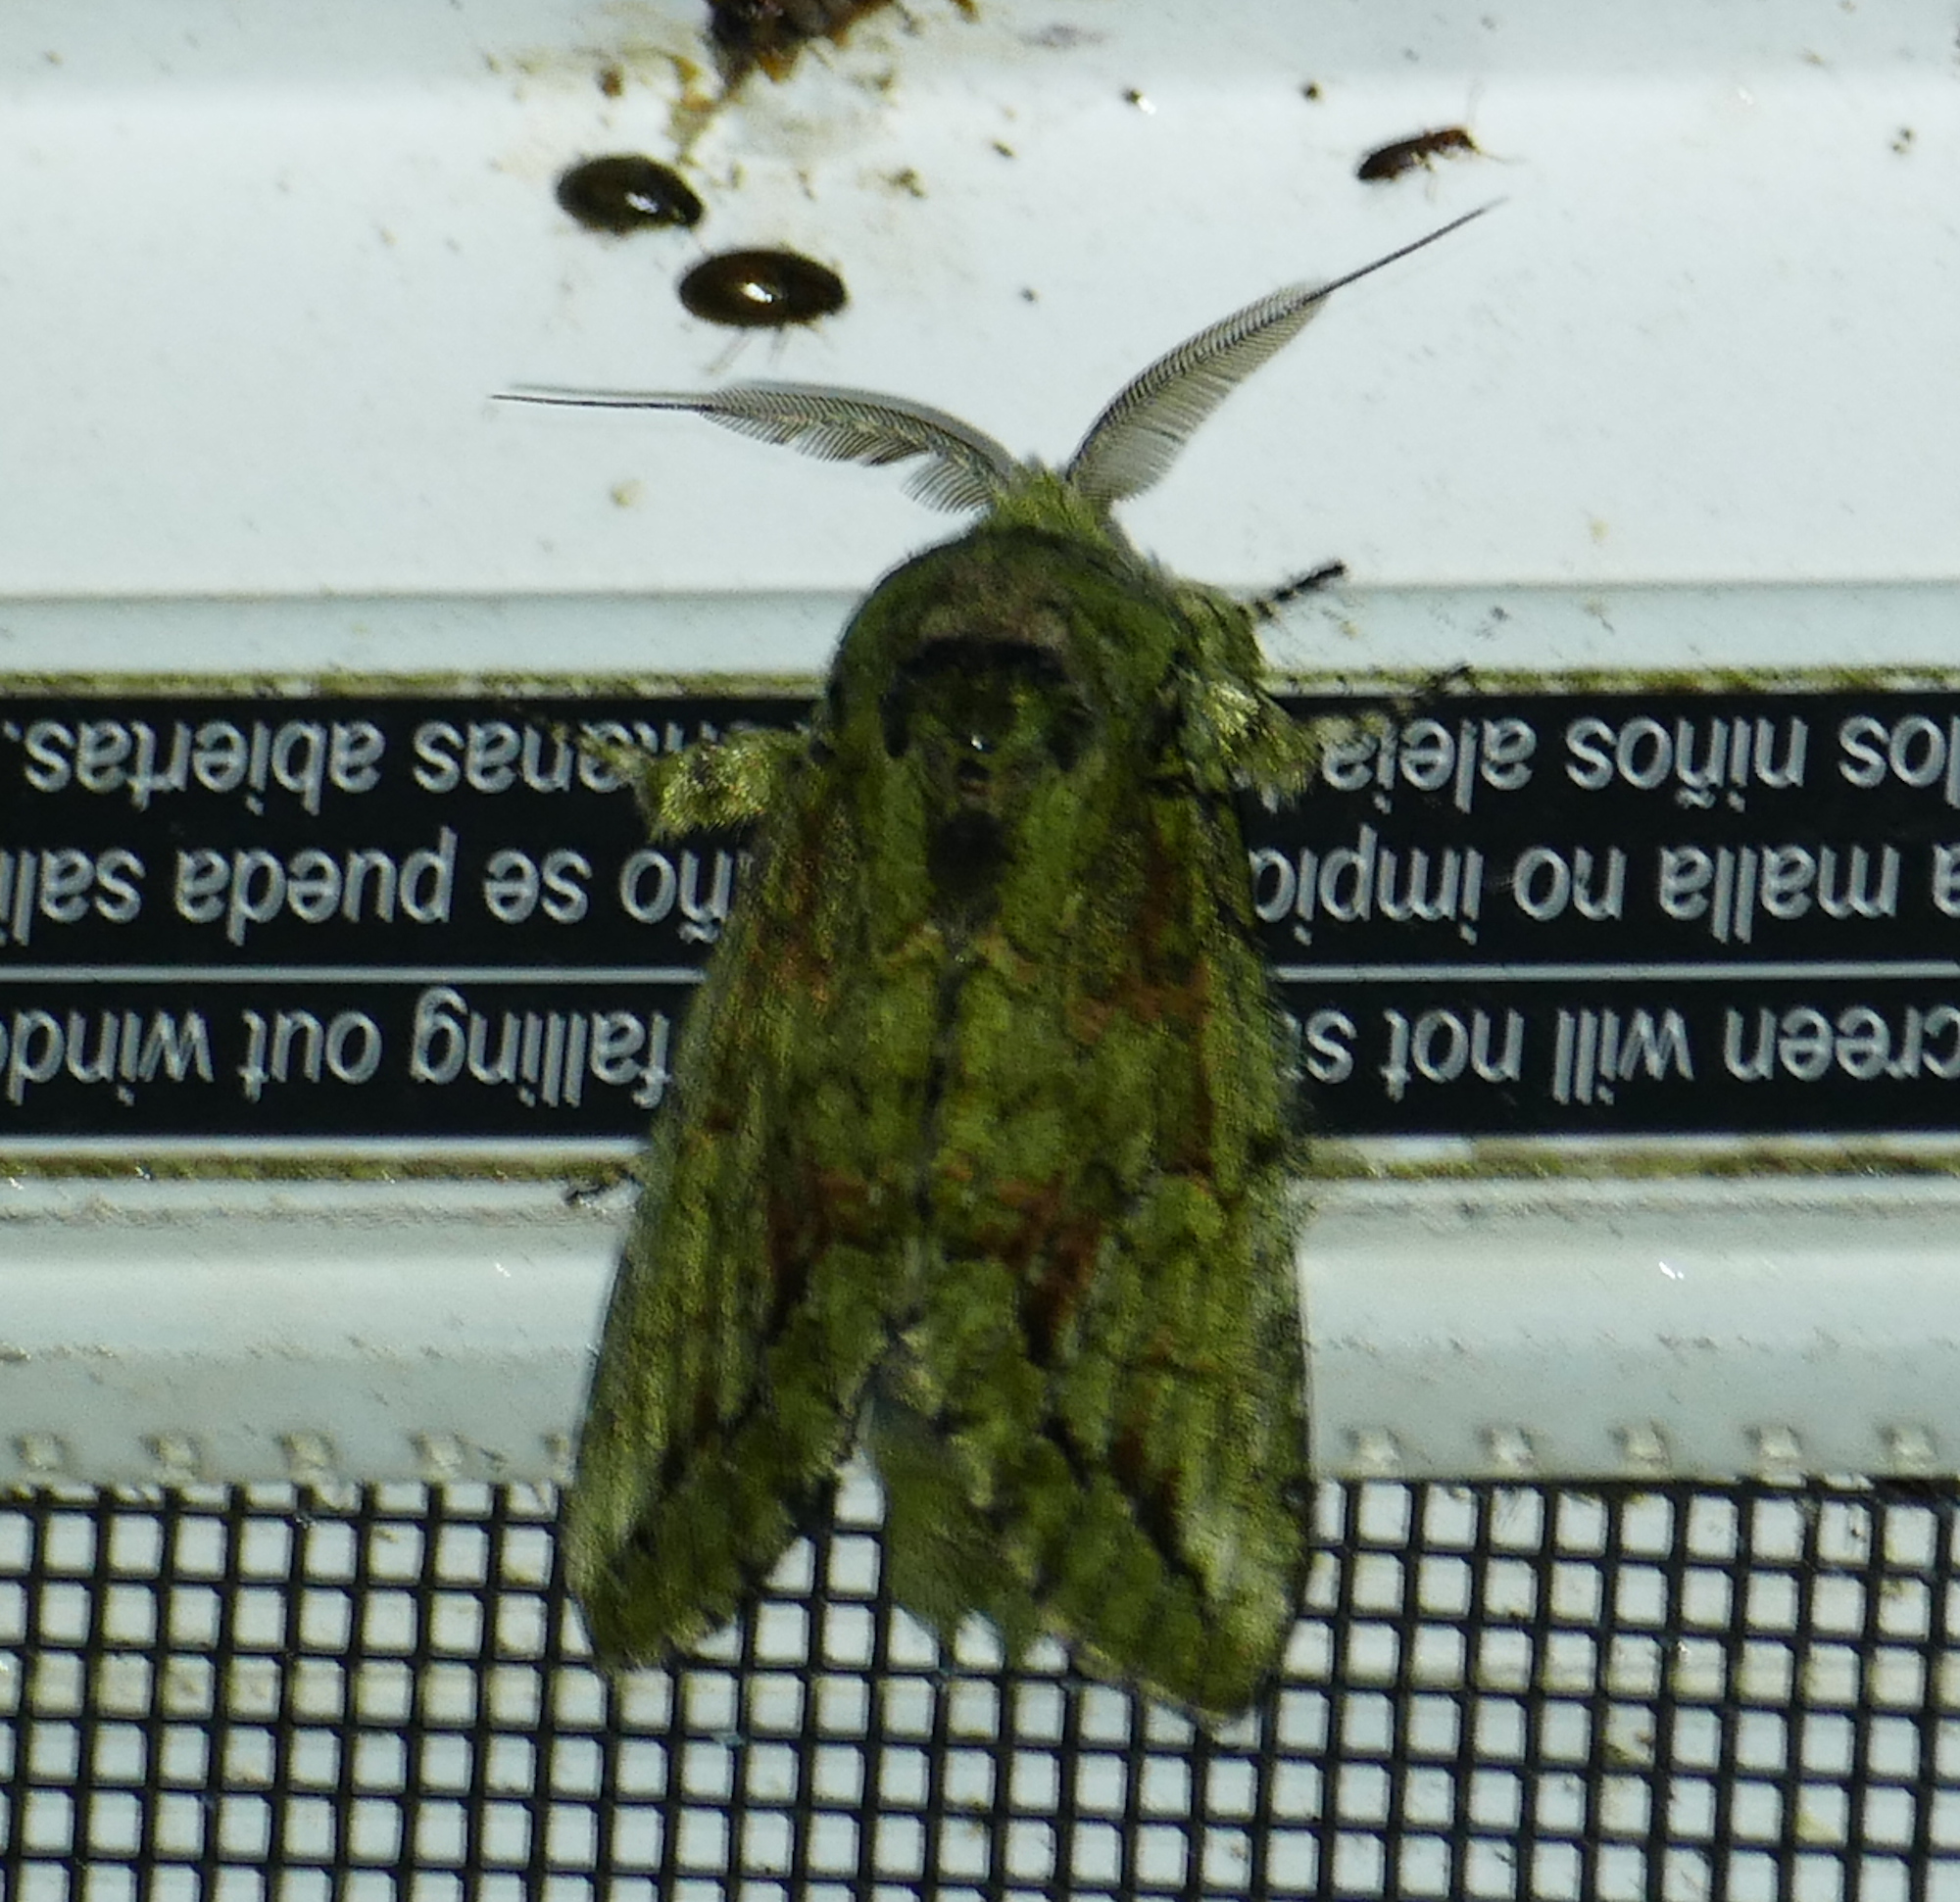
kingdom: Animalia
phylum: Arthropoda
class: Insecta
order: Lepidoptera
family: Notodontidae
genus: Heterocampa
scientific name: Heterocampa
